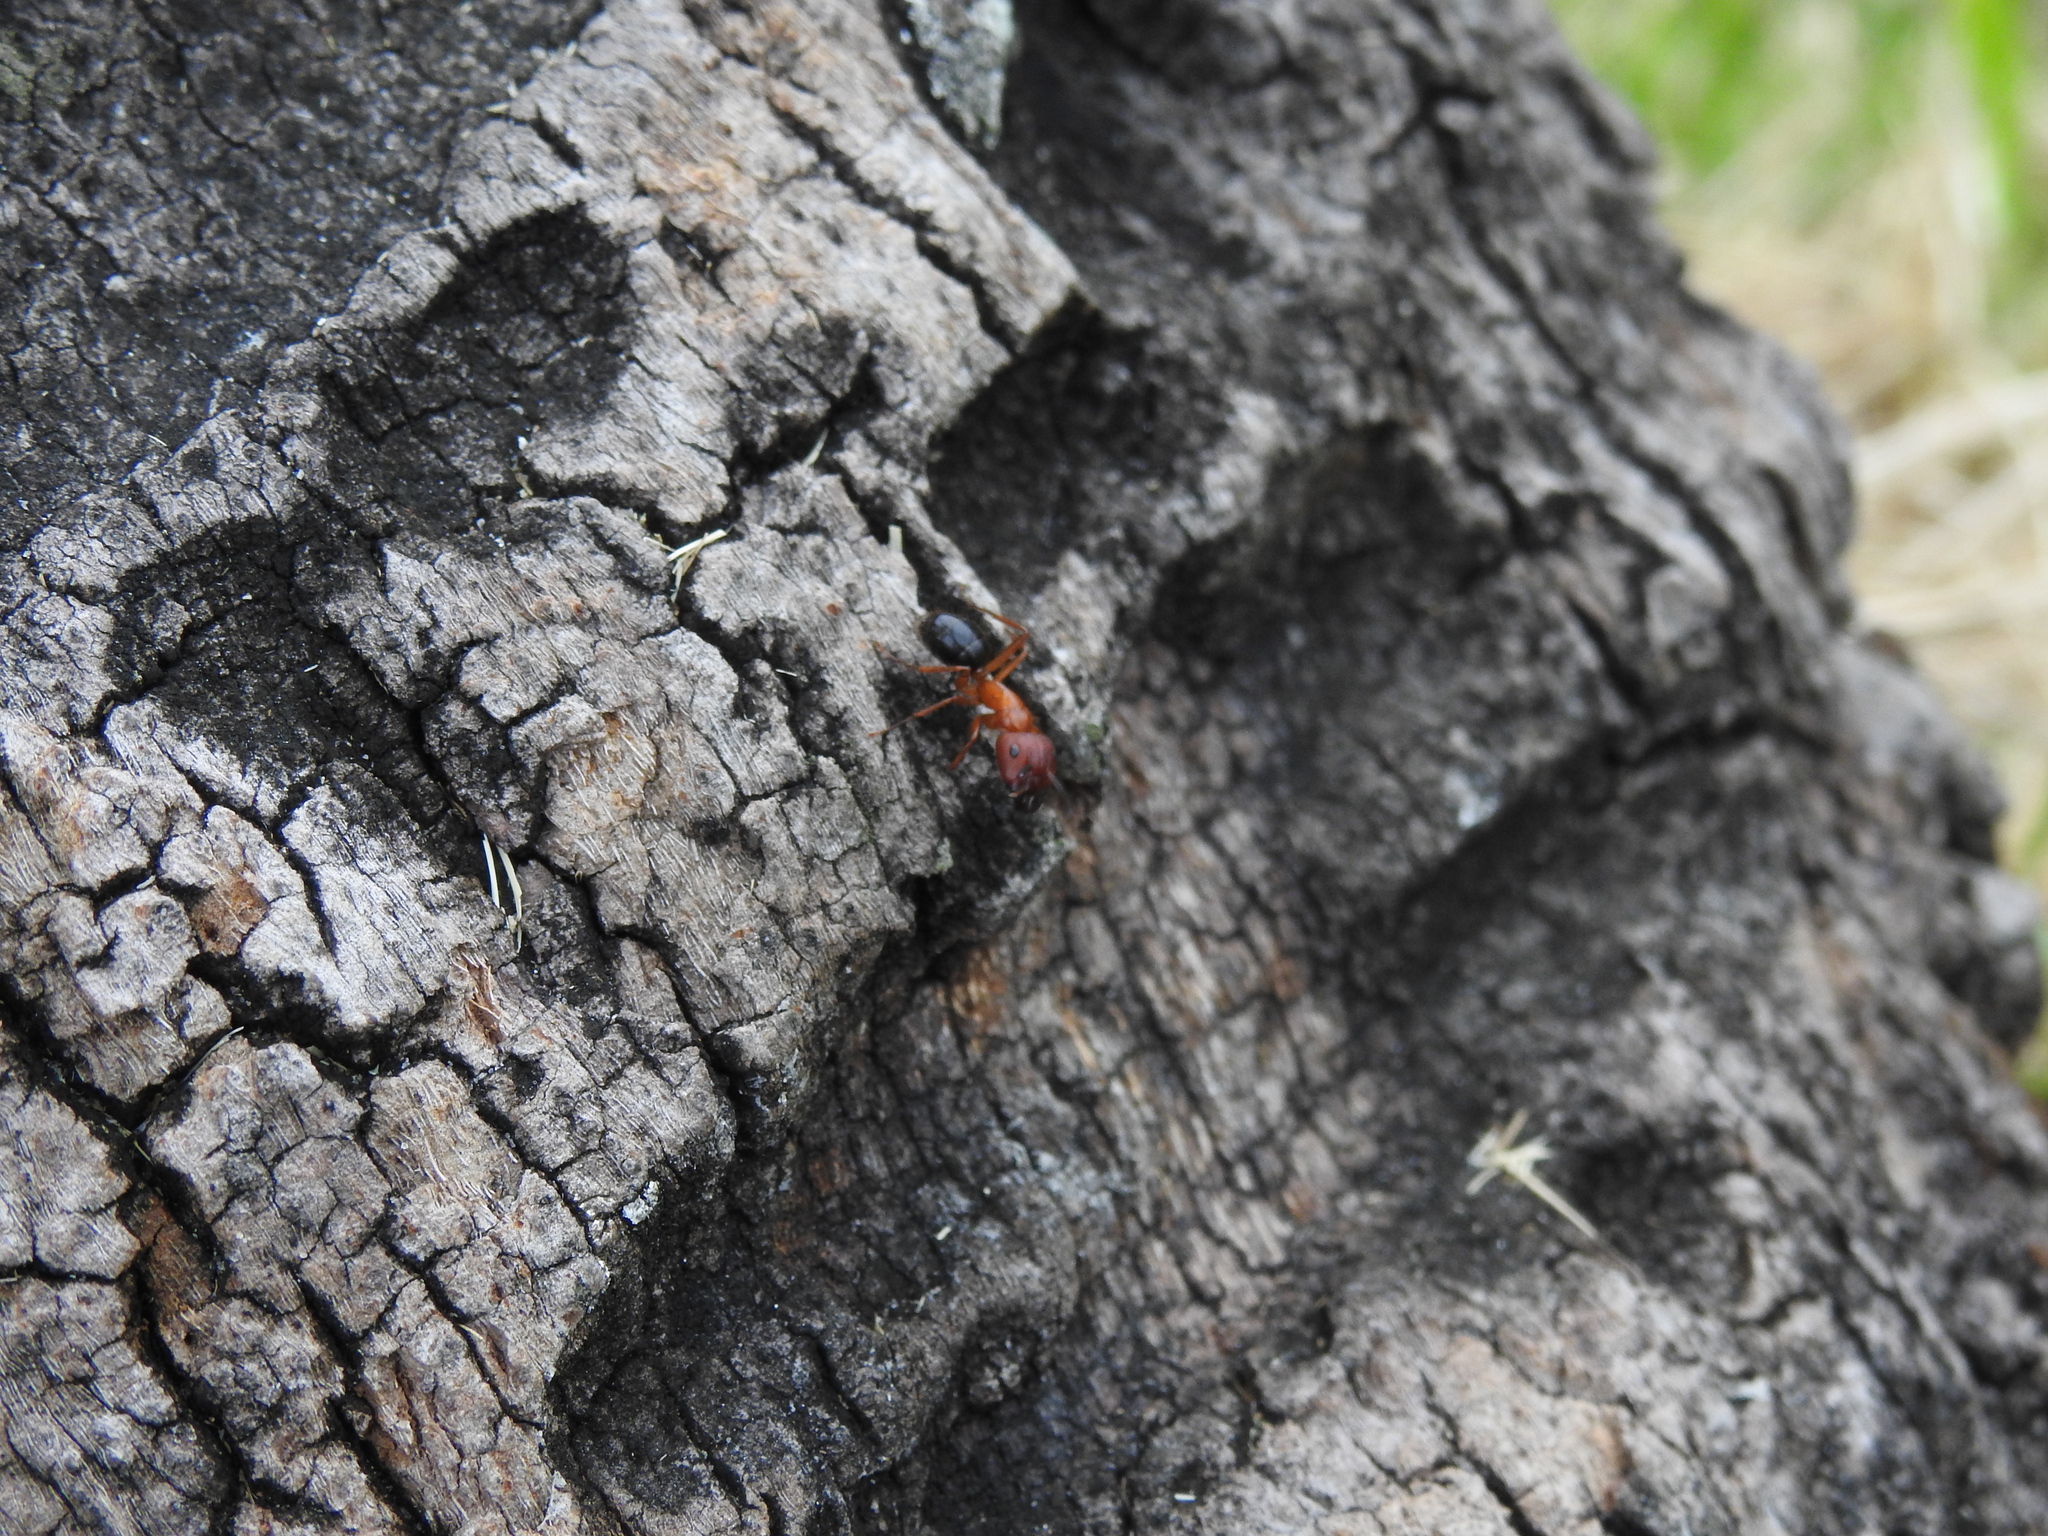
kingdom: Animalia
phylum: Arthropoda
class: Insecta
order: Hymenoptera
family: Formicidae
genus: Camponotus
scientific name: Camponotus floridanus
